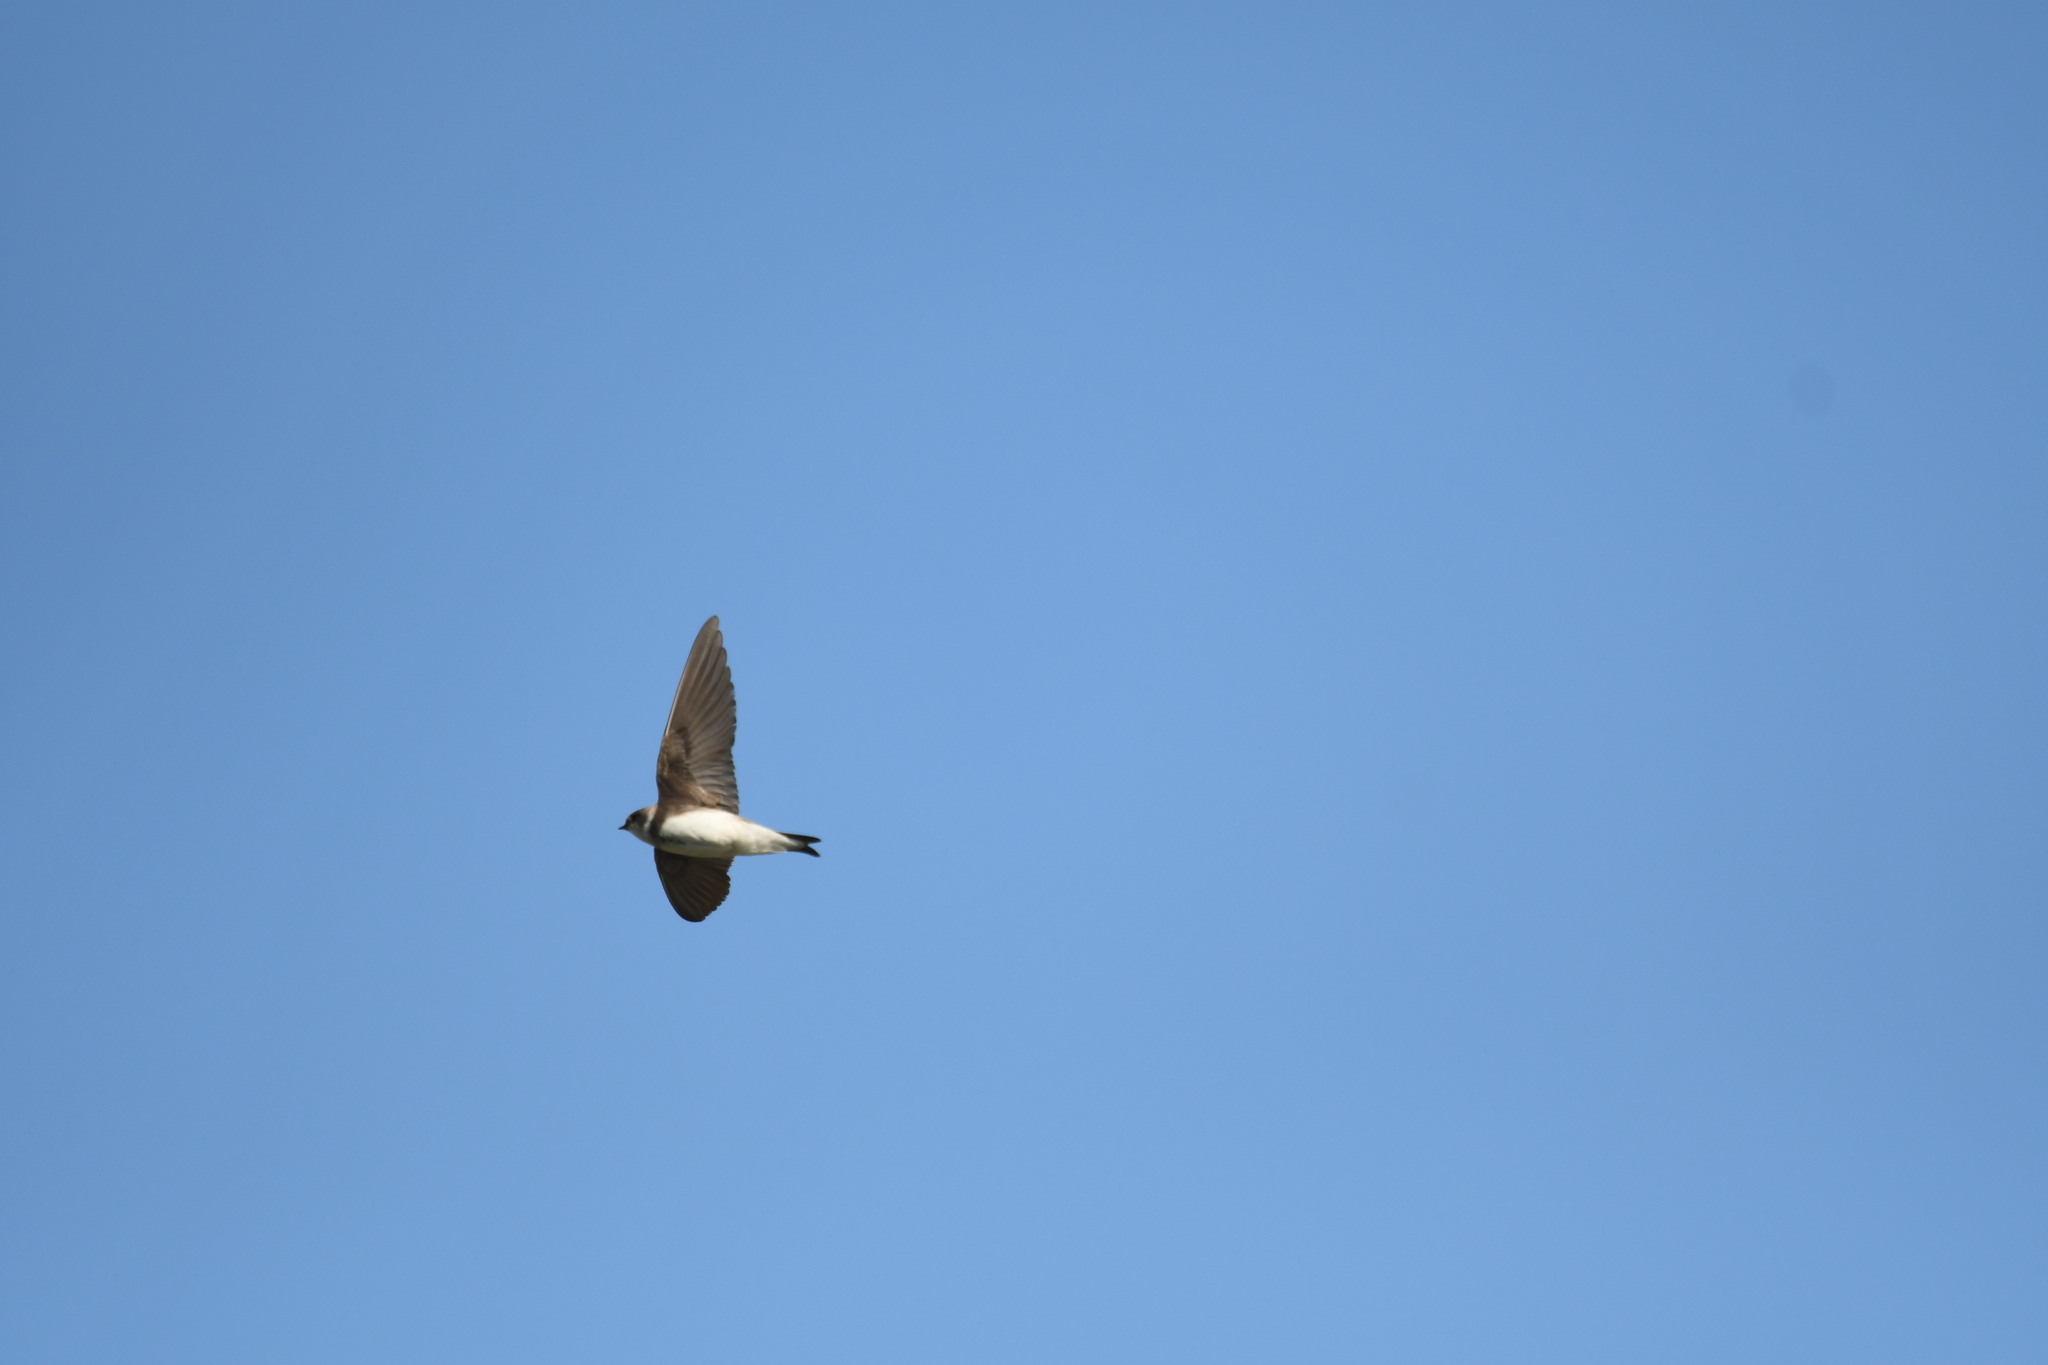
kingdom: Animalia
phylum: Chordata
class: Aves
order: Passeriformes
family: Hirundinidae
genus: Riparia
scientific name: Riparia riparia
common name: Sand martin
